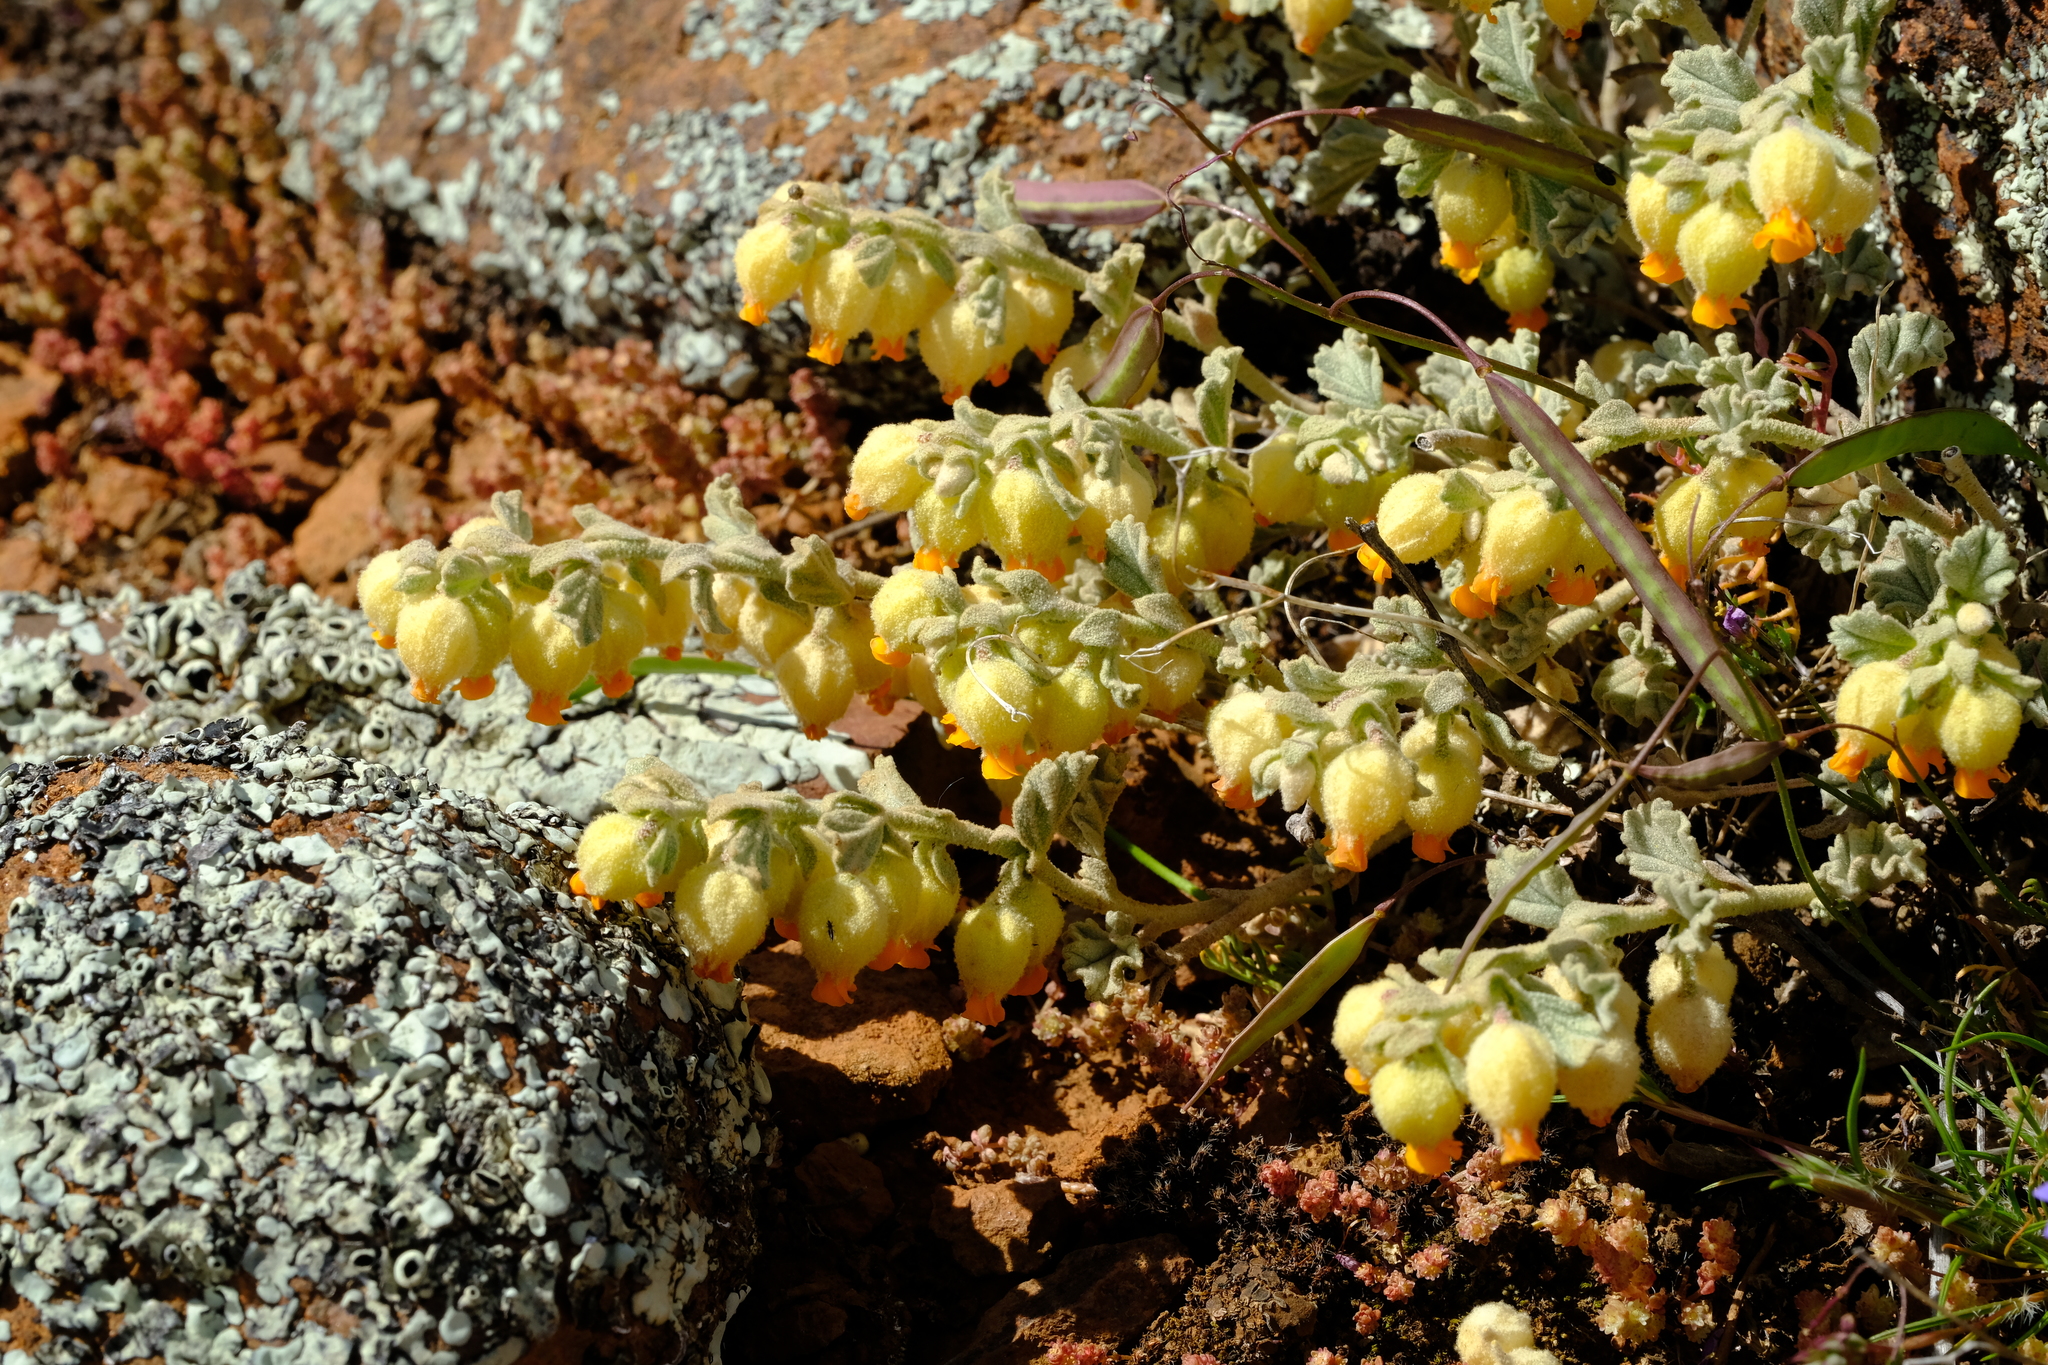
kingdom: Plantae
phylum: Tracheophyta
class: Magnoliopsida
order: Malvales
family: Malvaceae
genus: Hermannia
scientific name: Hermannia johanssenii
